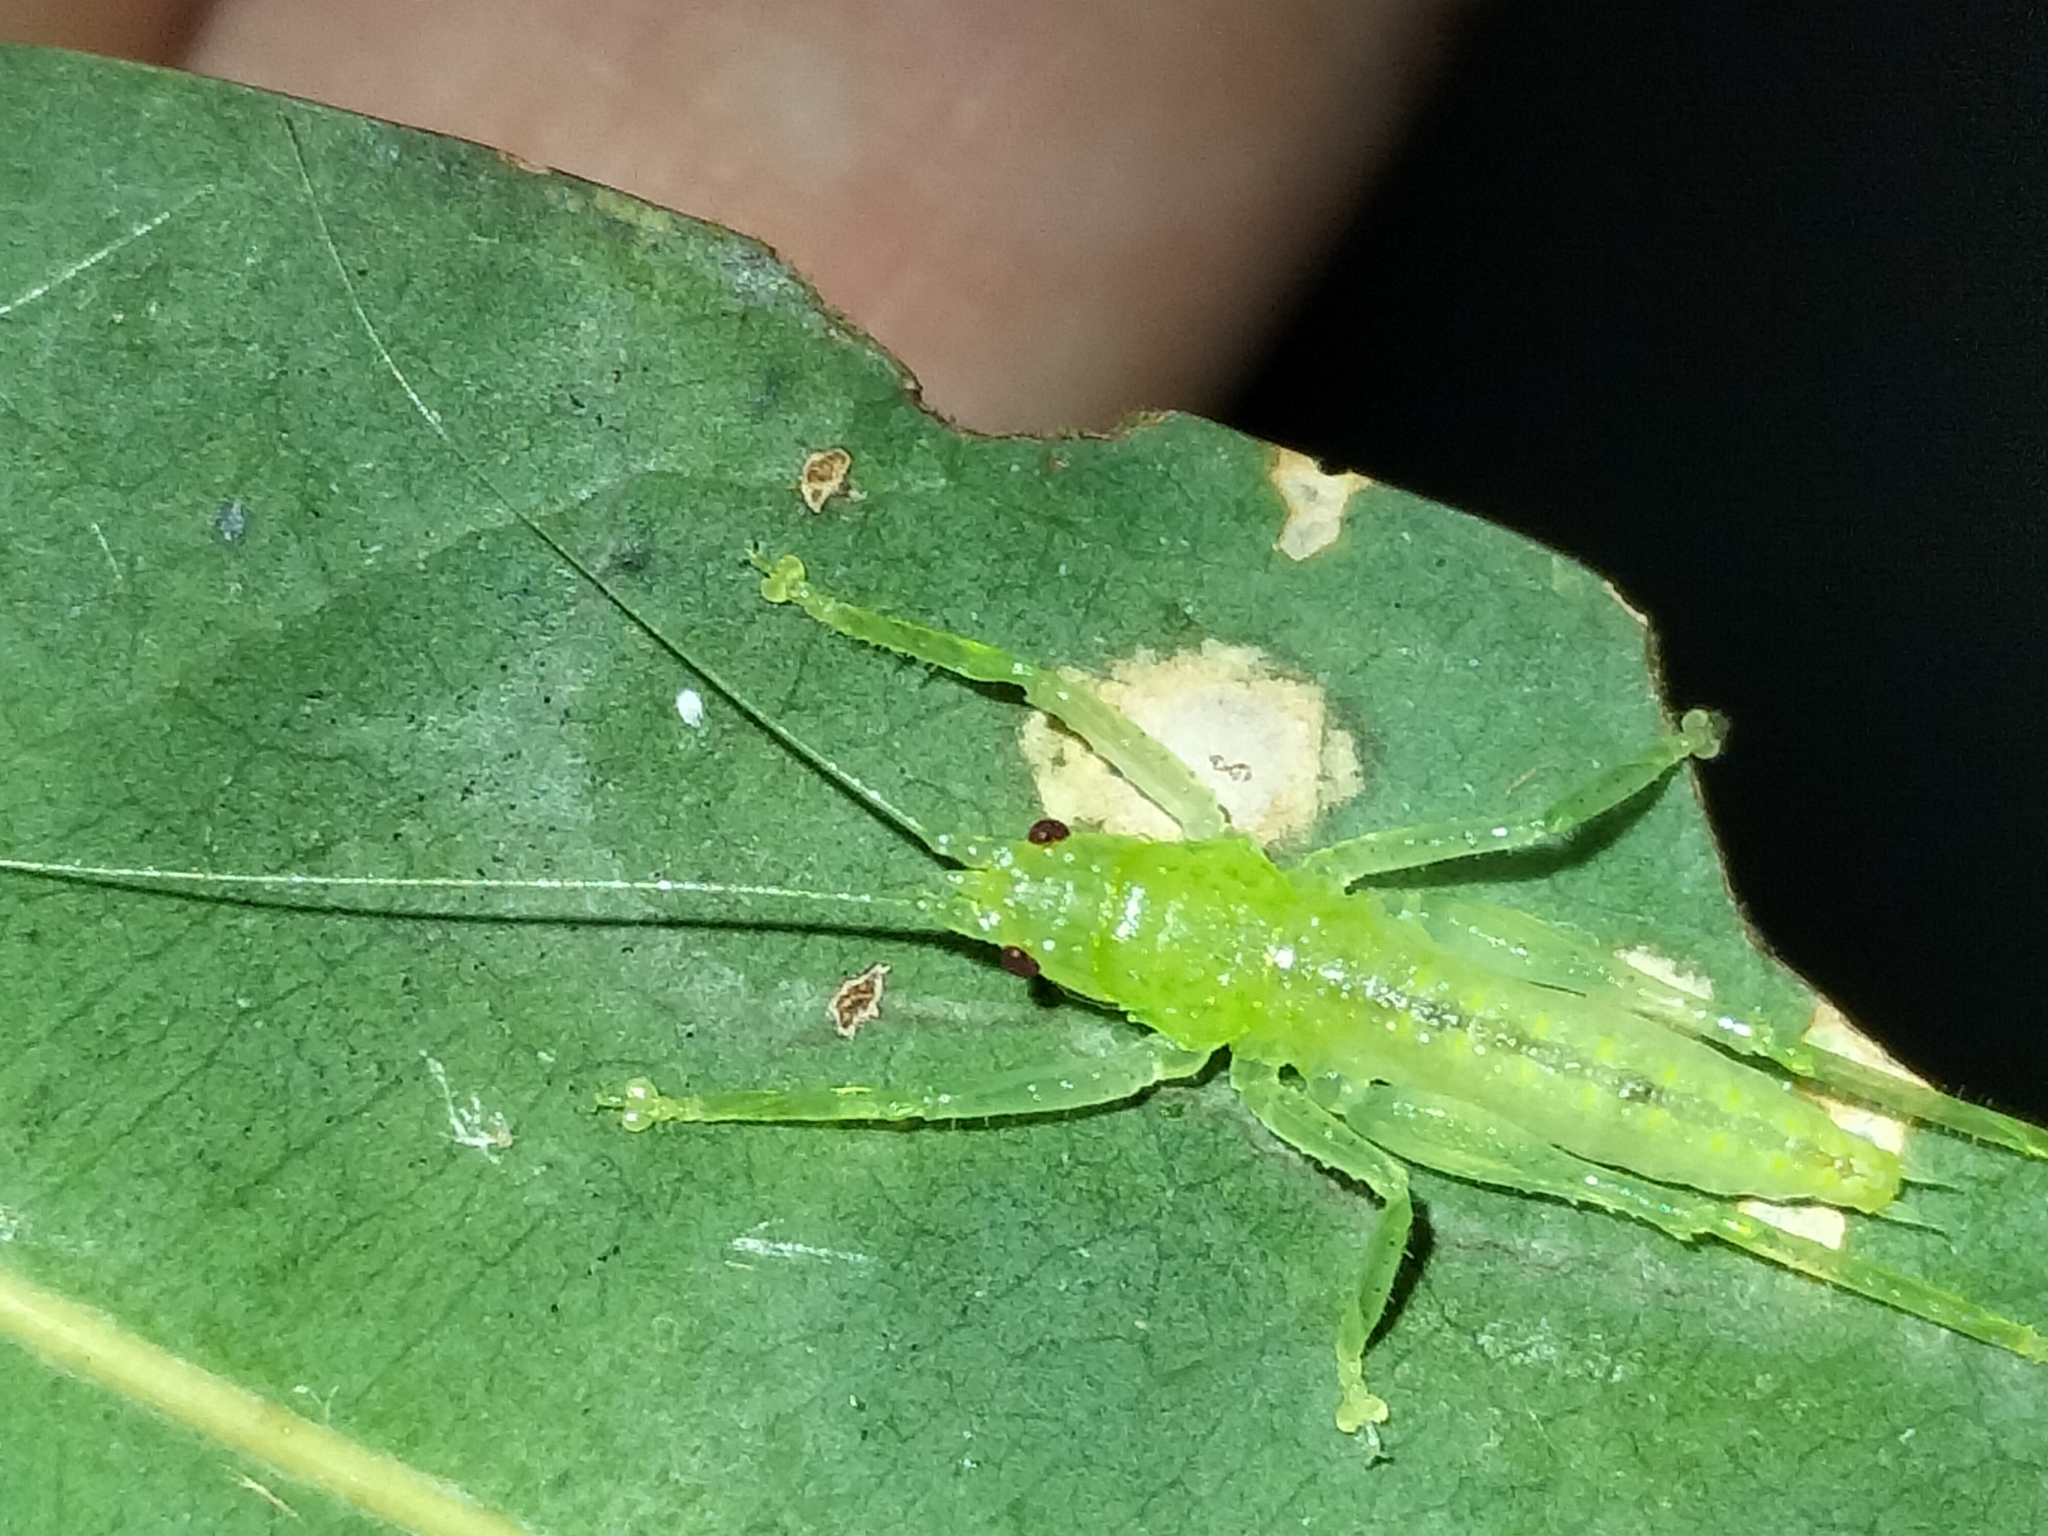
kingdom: Animalia
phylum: Arthropoda
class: Insecta
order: Orthoptera
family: Tettigoniidae
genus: Emeraldagraecia
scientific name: Emeraldagraecia munggarifrons
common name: Pink-faced emerald
